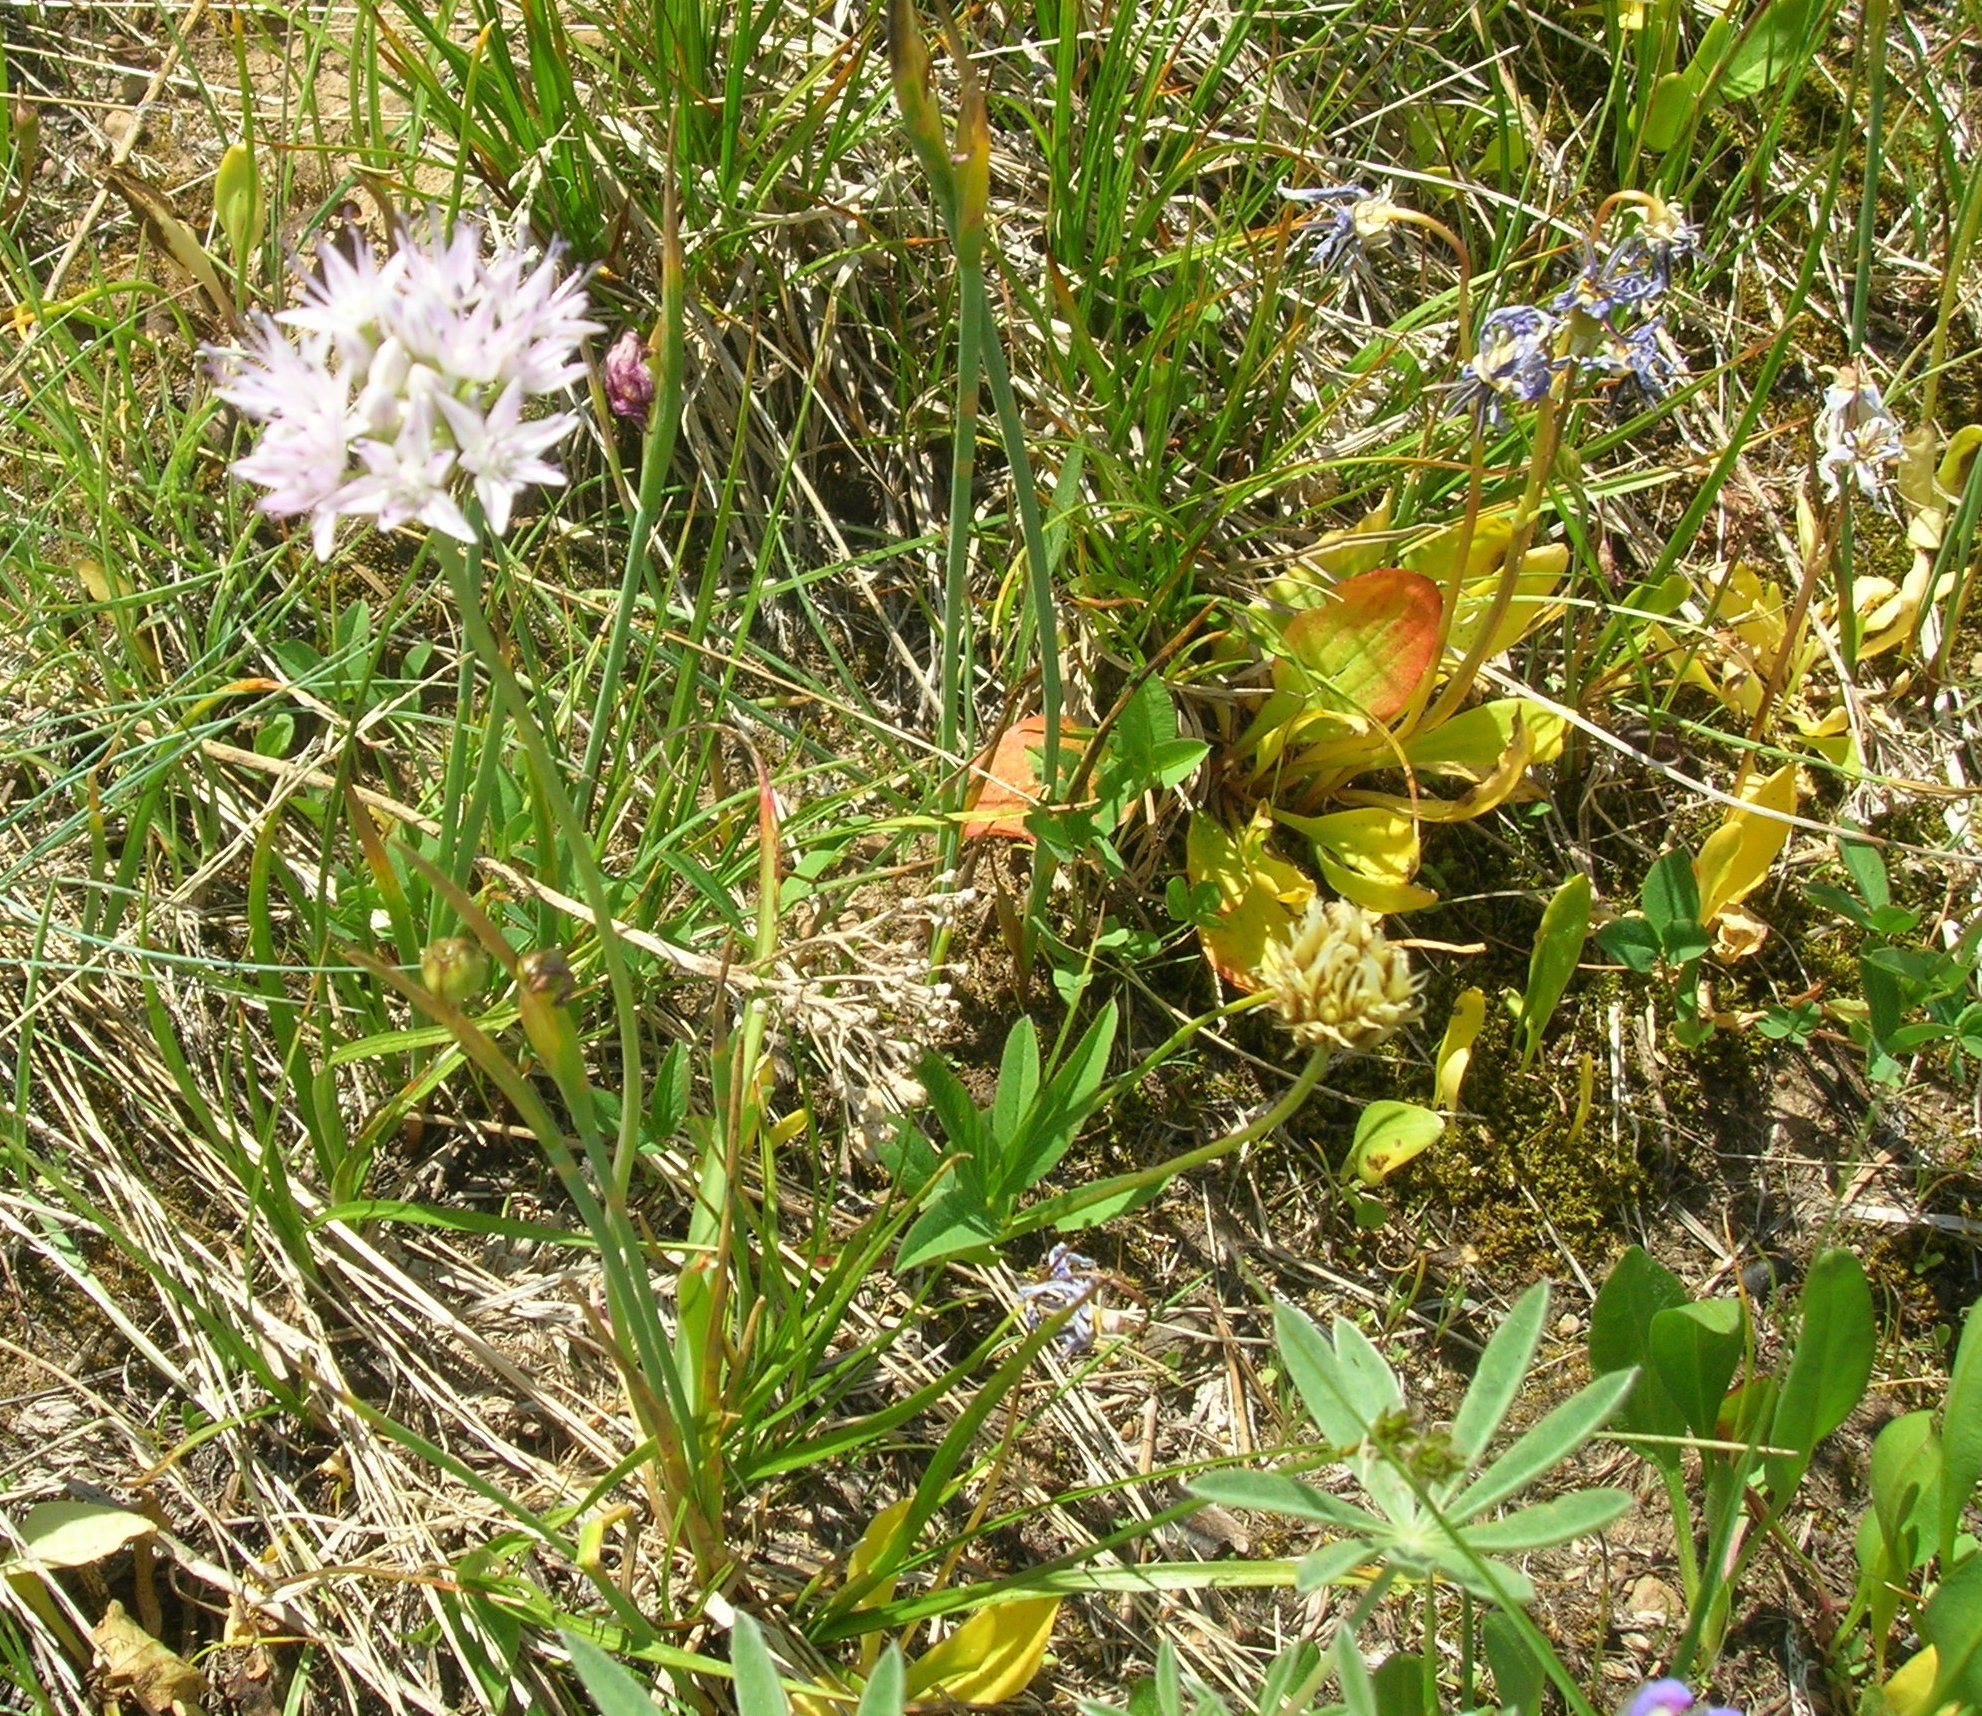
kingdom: Plantae
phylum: Tracheophyta
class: Liliopsida
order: Asparagales
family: Amaryllidaceae
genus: Allium
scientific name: Allium nevii
